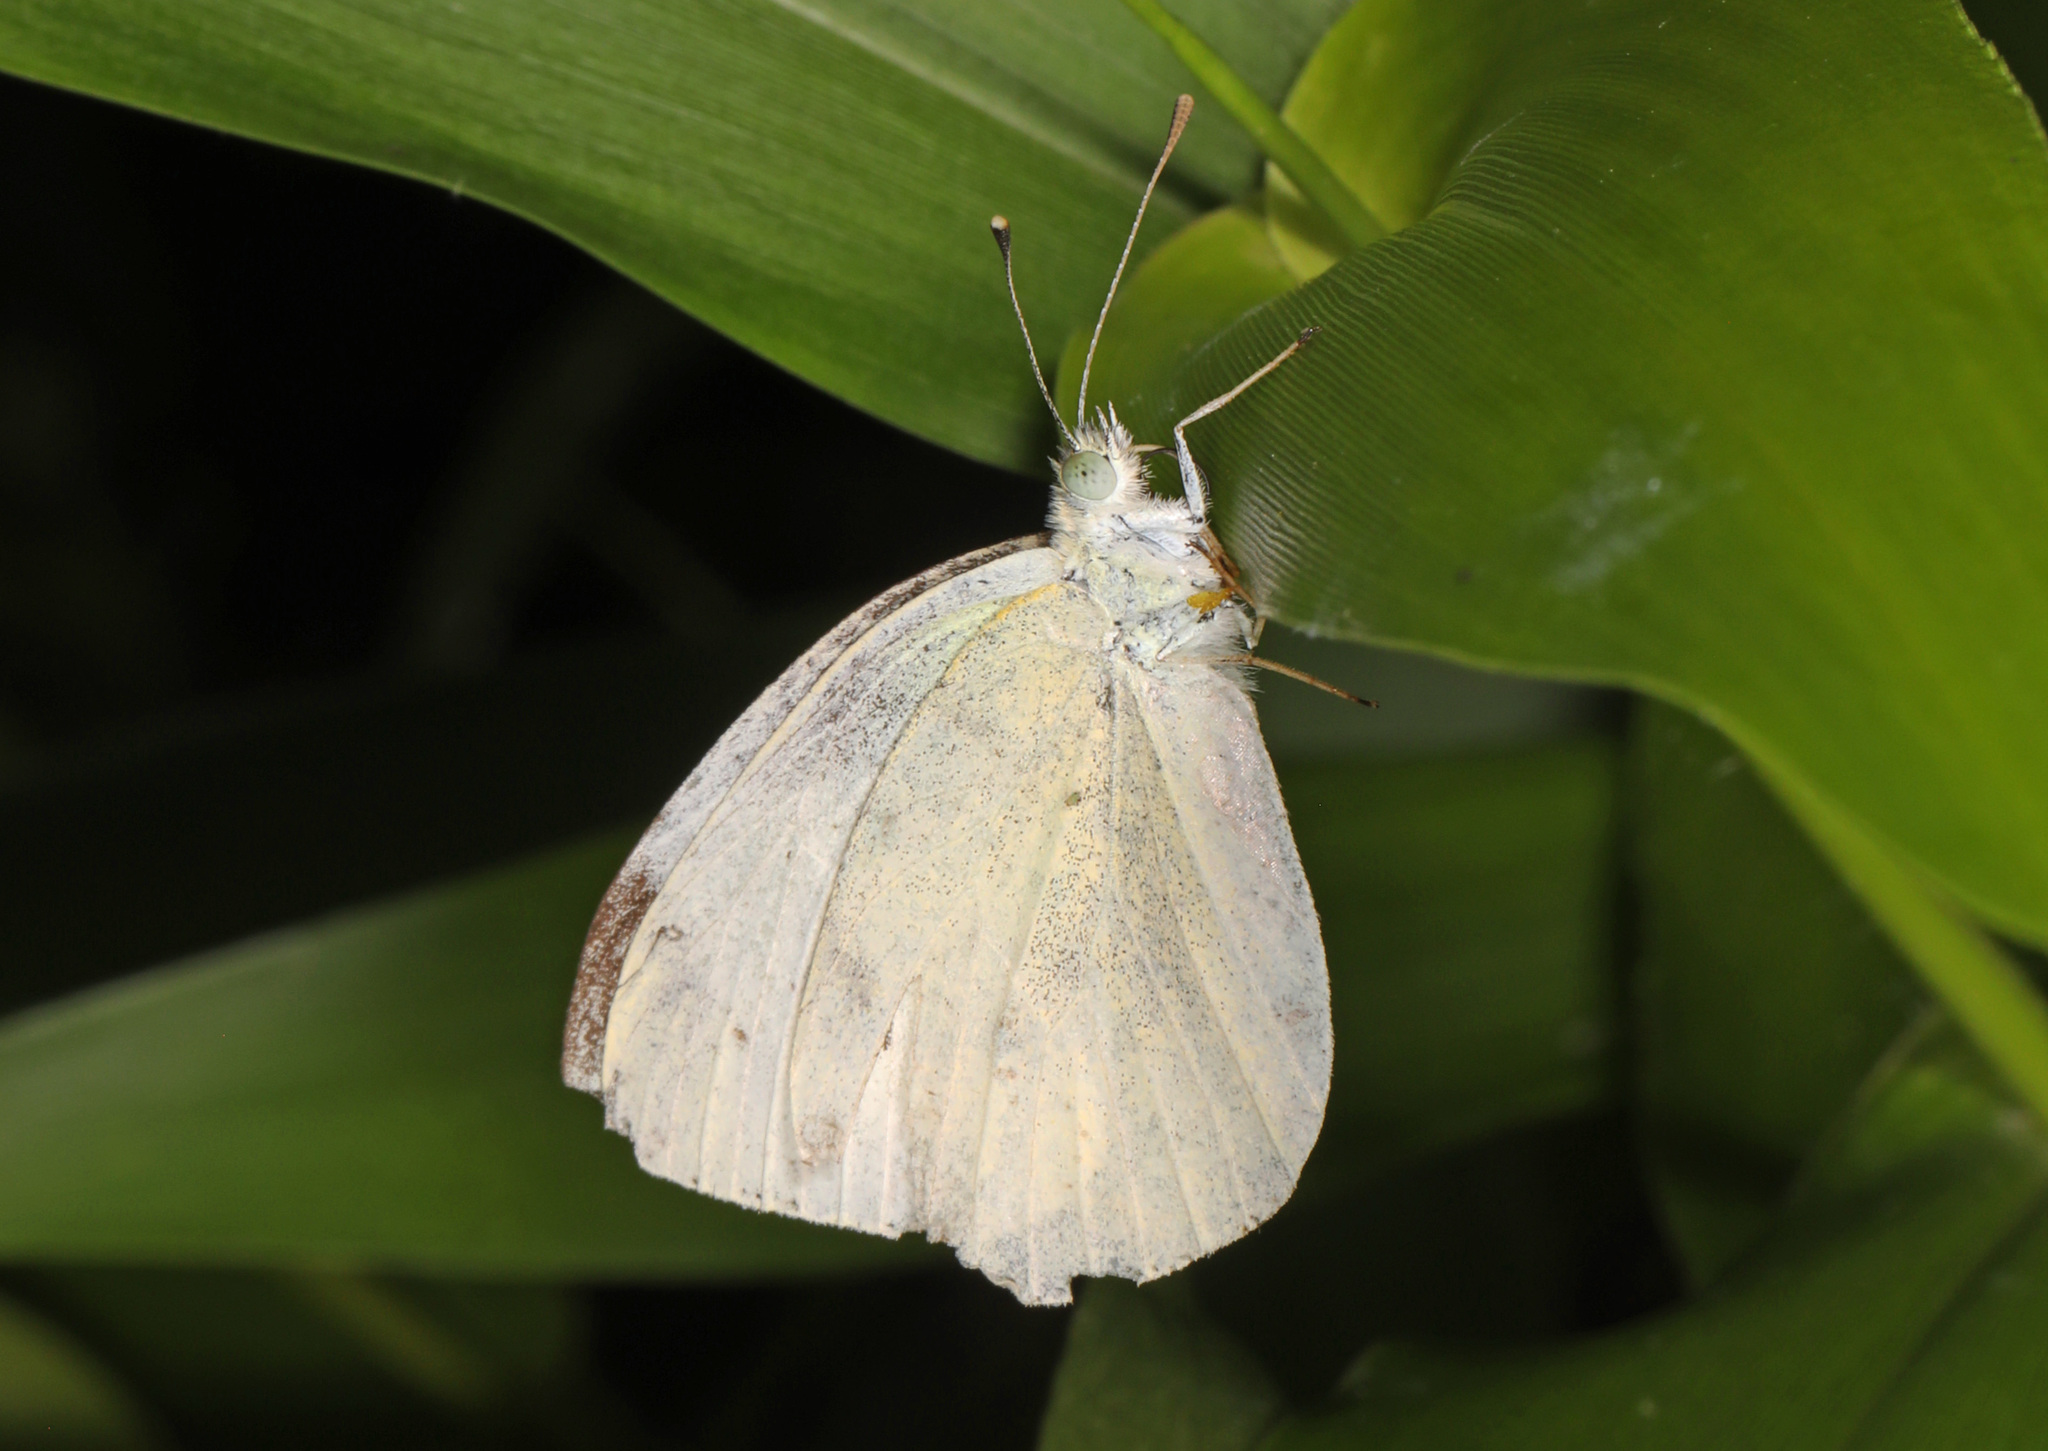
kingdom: Animalia
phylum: Arthropoda
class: Insecta
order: Lepidoptera
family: Pieridae
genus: Pieris
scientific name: Pieris rapae
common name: Small white
